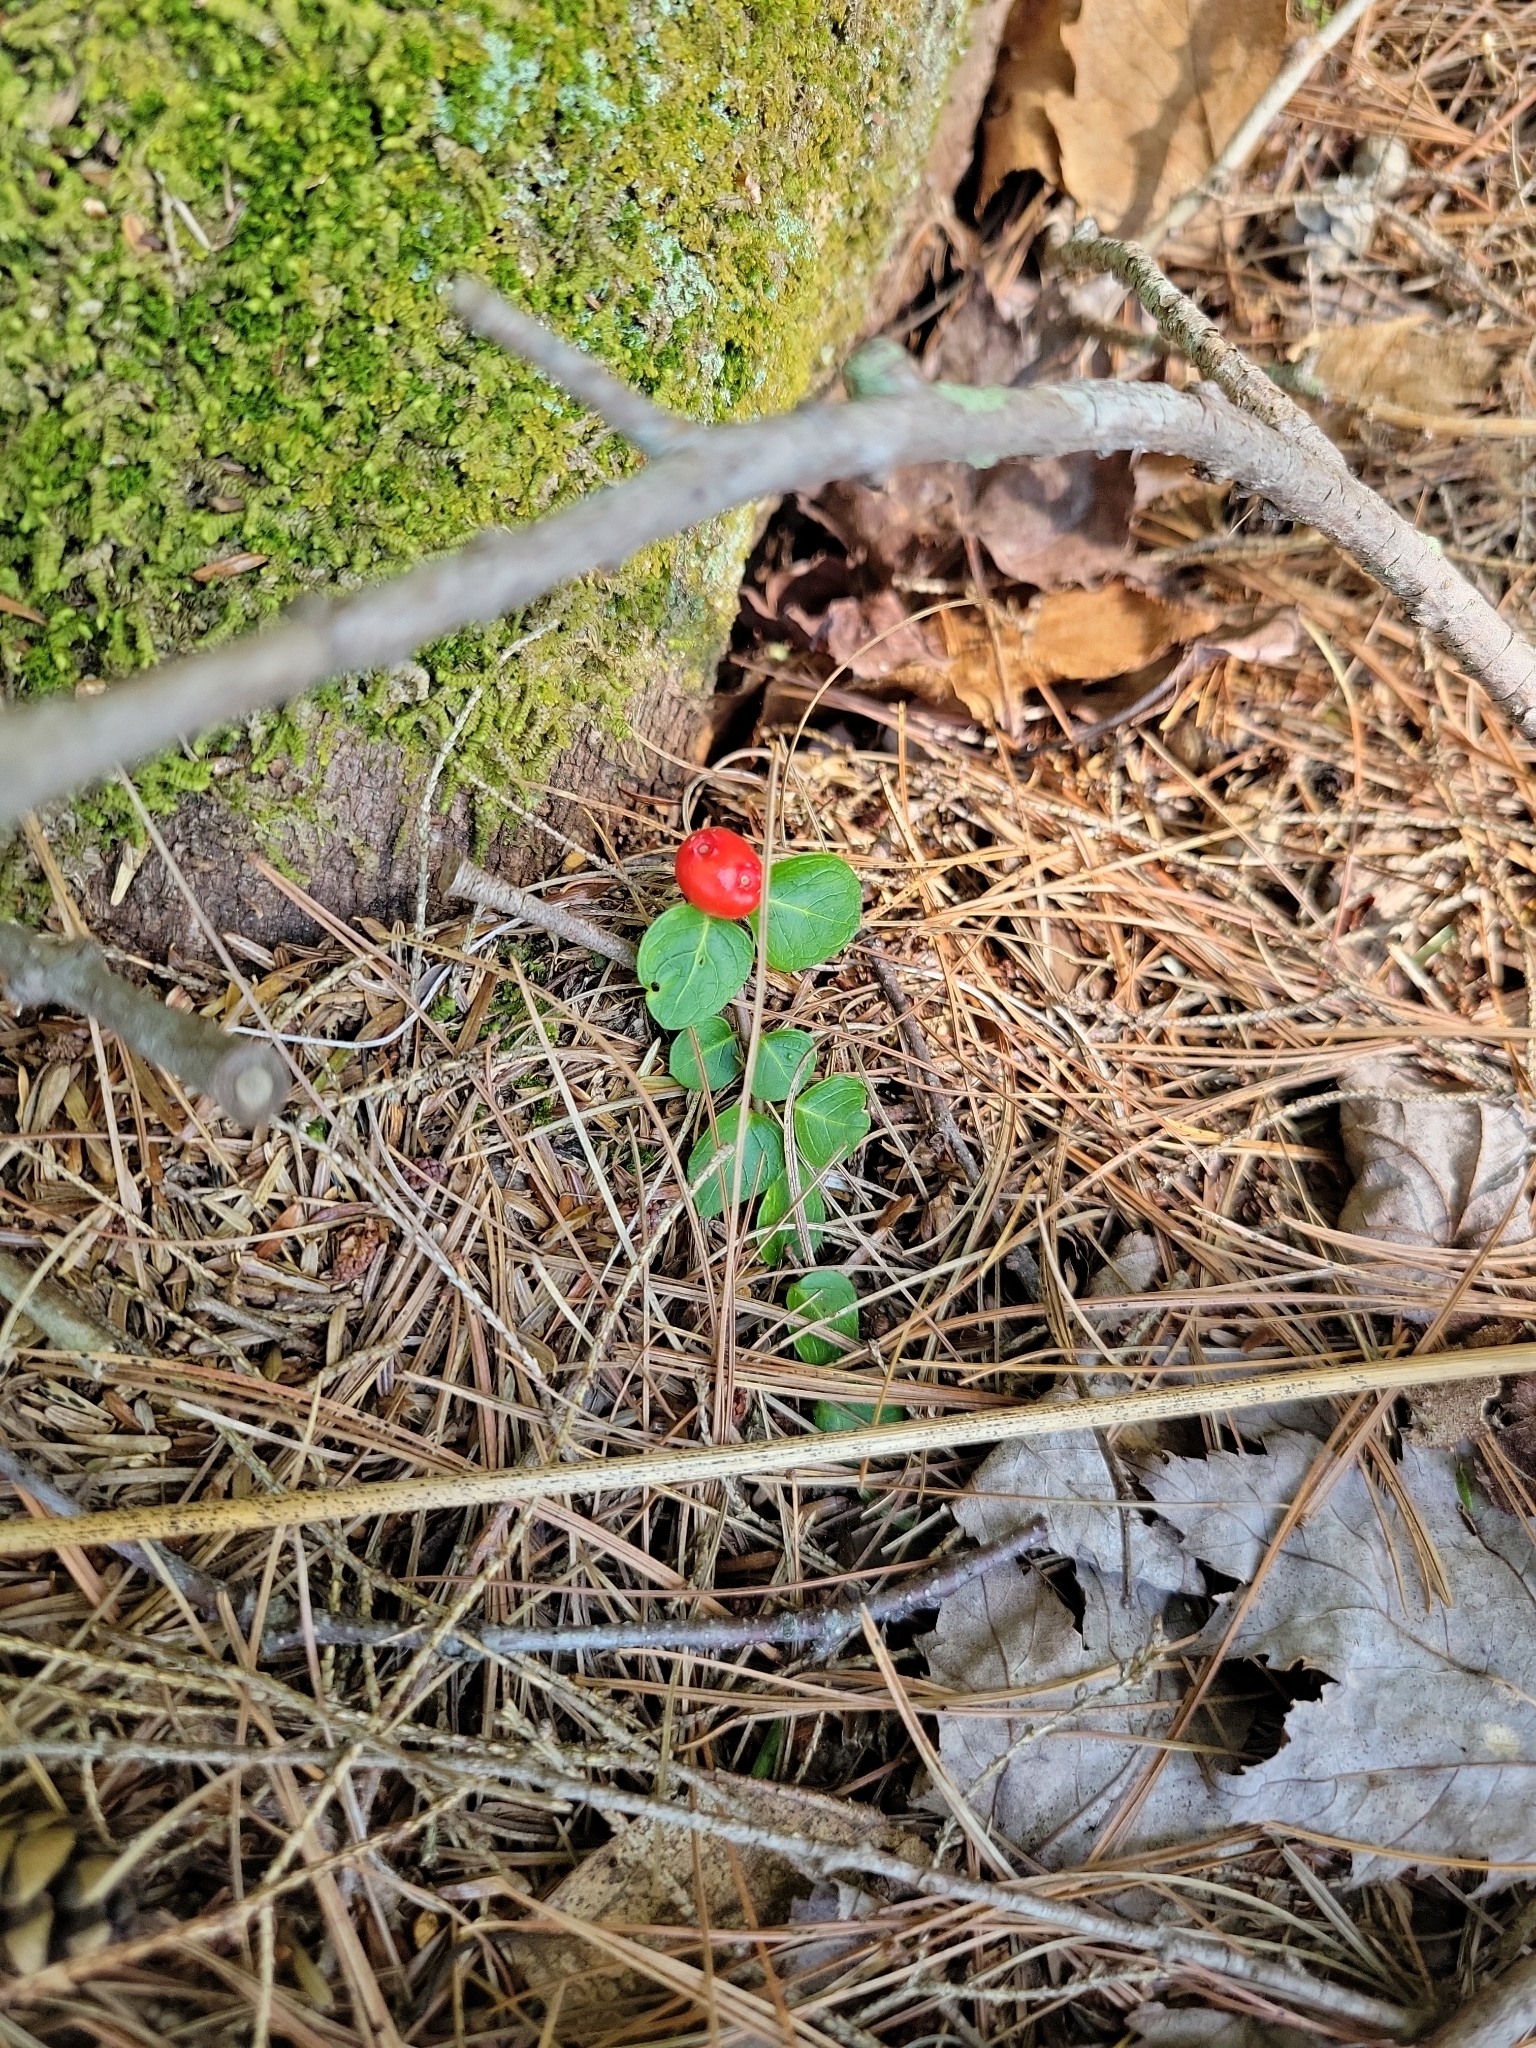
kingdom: Plantae
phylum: Tracheophyta
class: Magnoliopsida
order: Gentianales
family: Rubiaceae
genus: Mitchella
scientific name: Mitchella repens
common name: Partridge-berry
